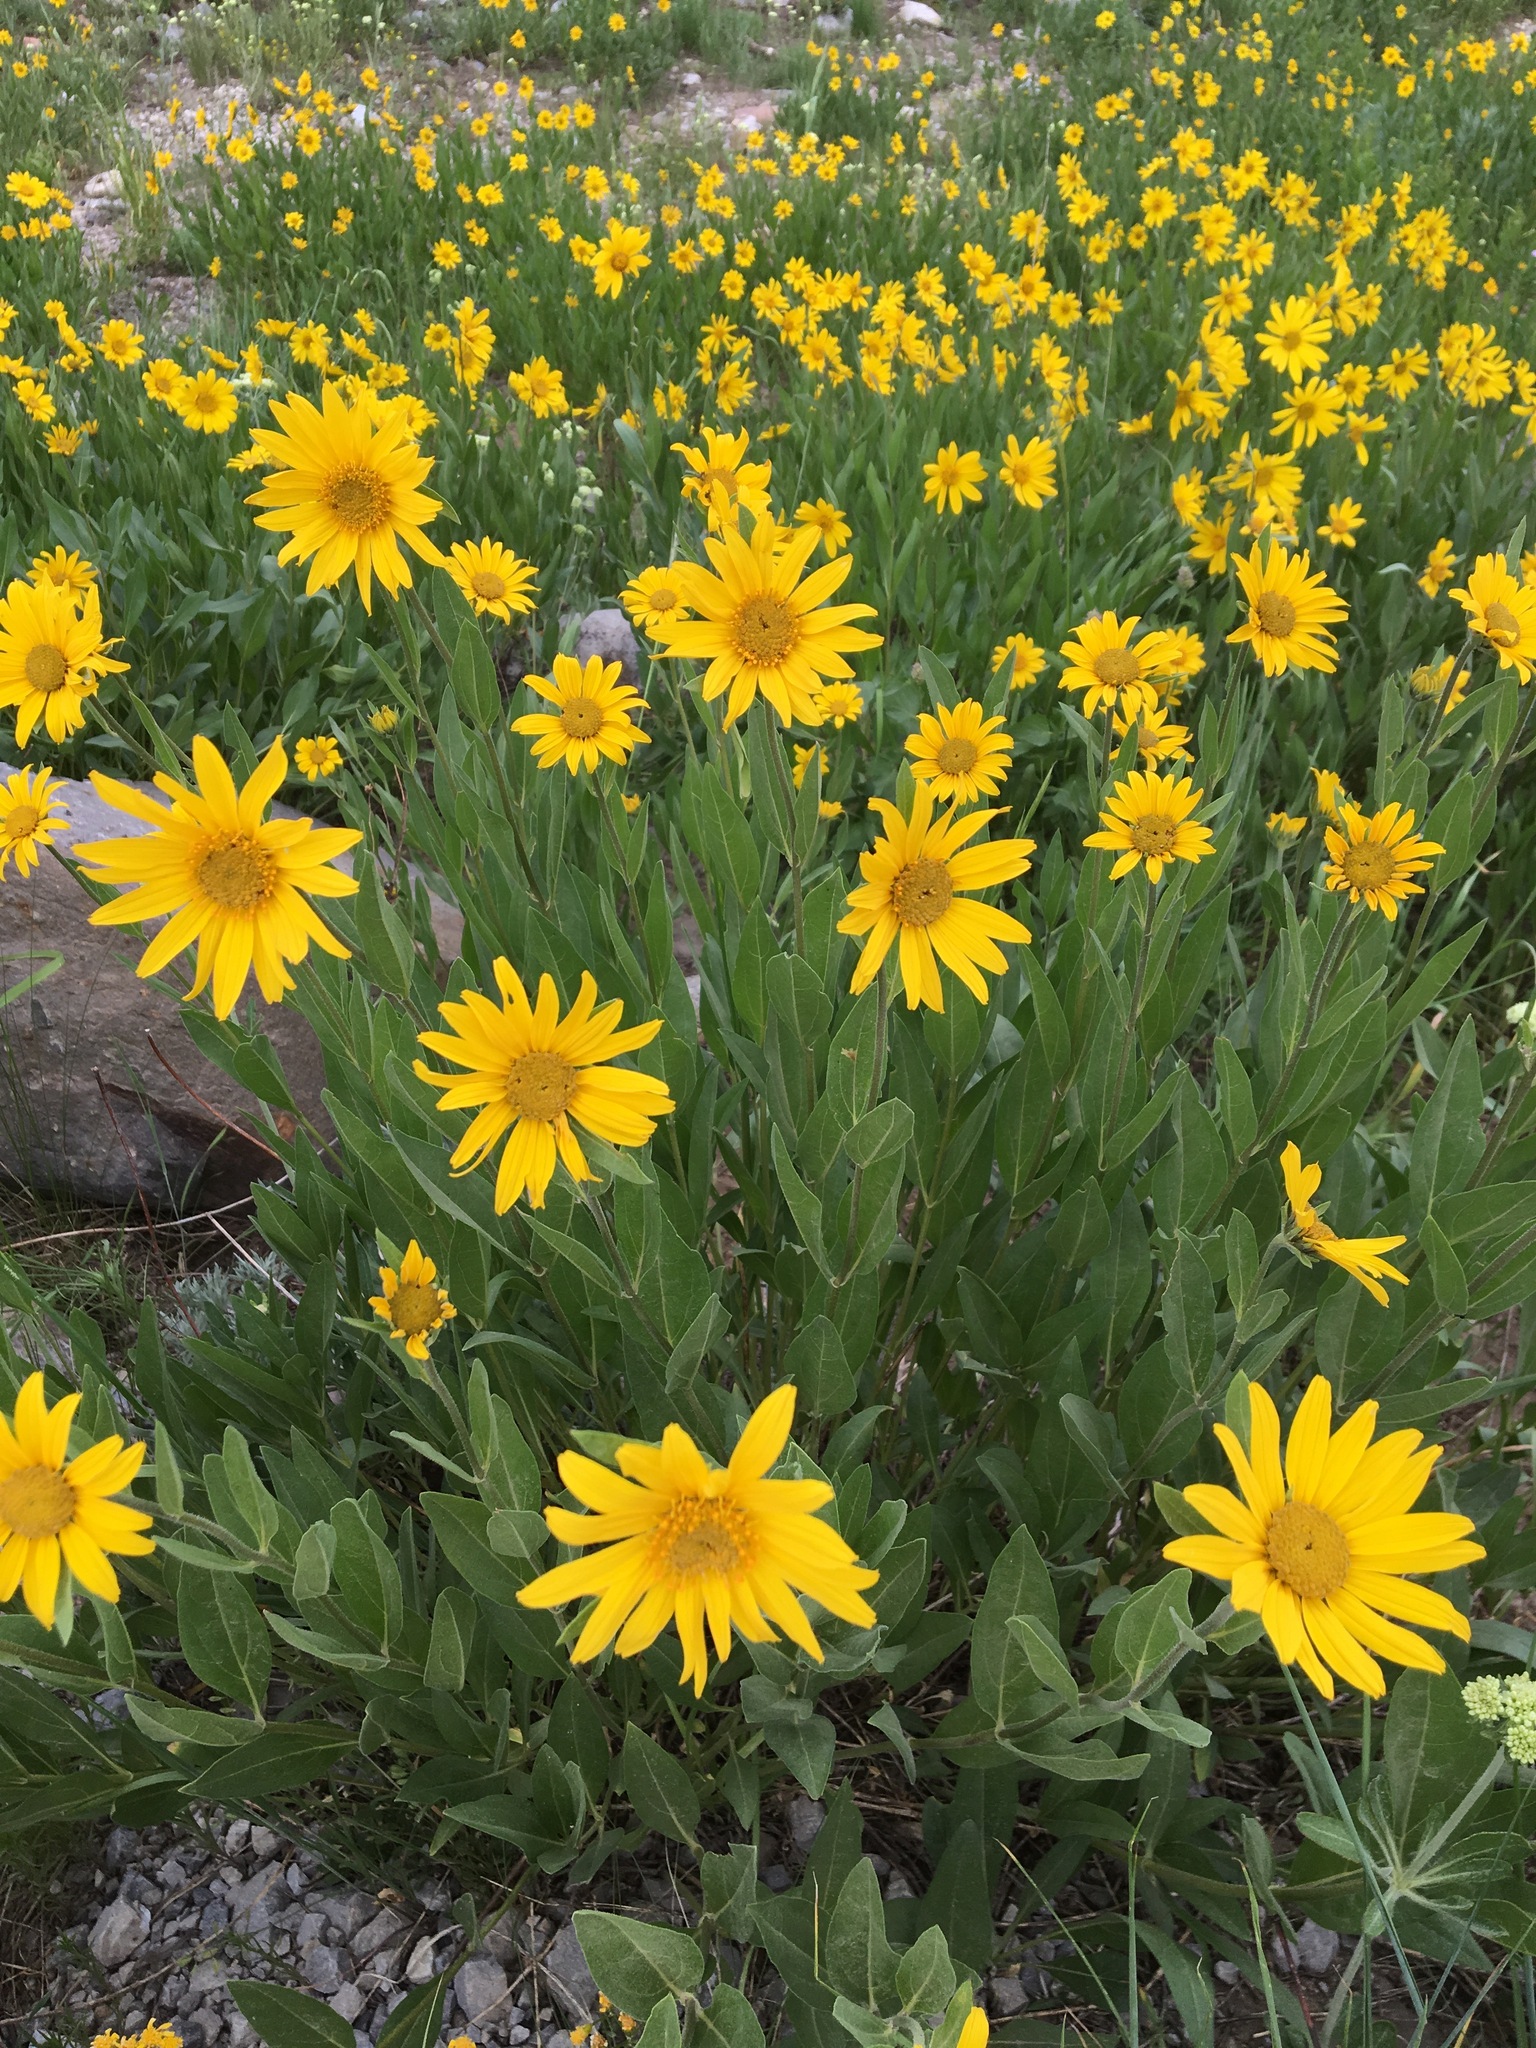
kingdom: Plantae
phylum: Tracheophyta
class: Magnoliopsida
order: Asterales
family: Asteraceae
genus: Helianthella
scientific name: Helianthella uniflora
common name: Rocky mountain dwarf sunflower
